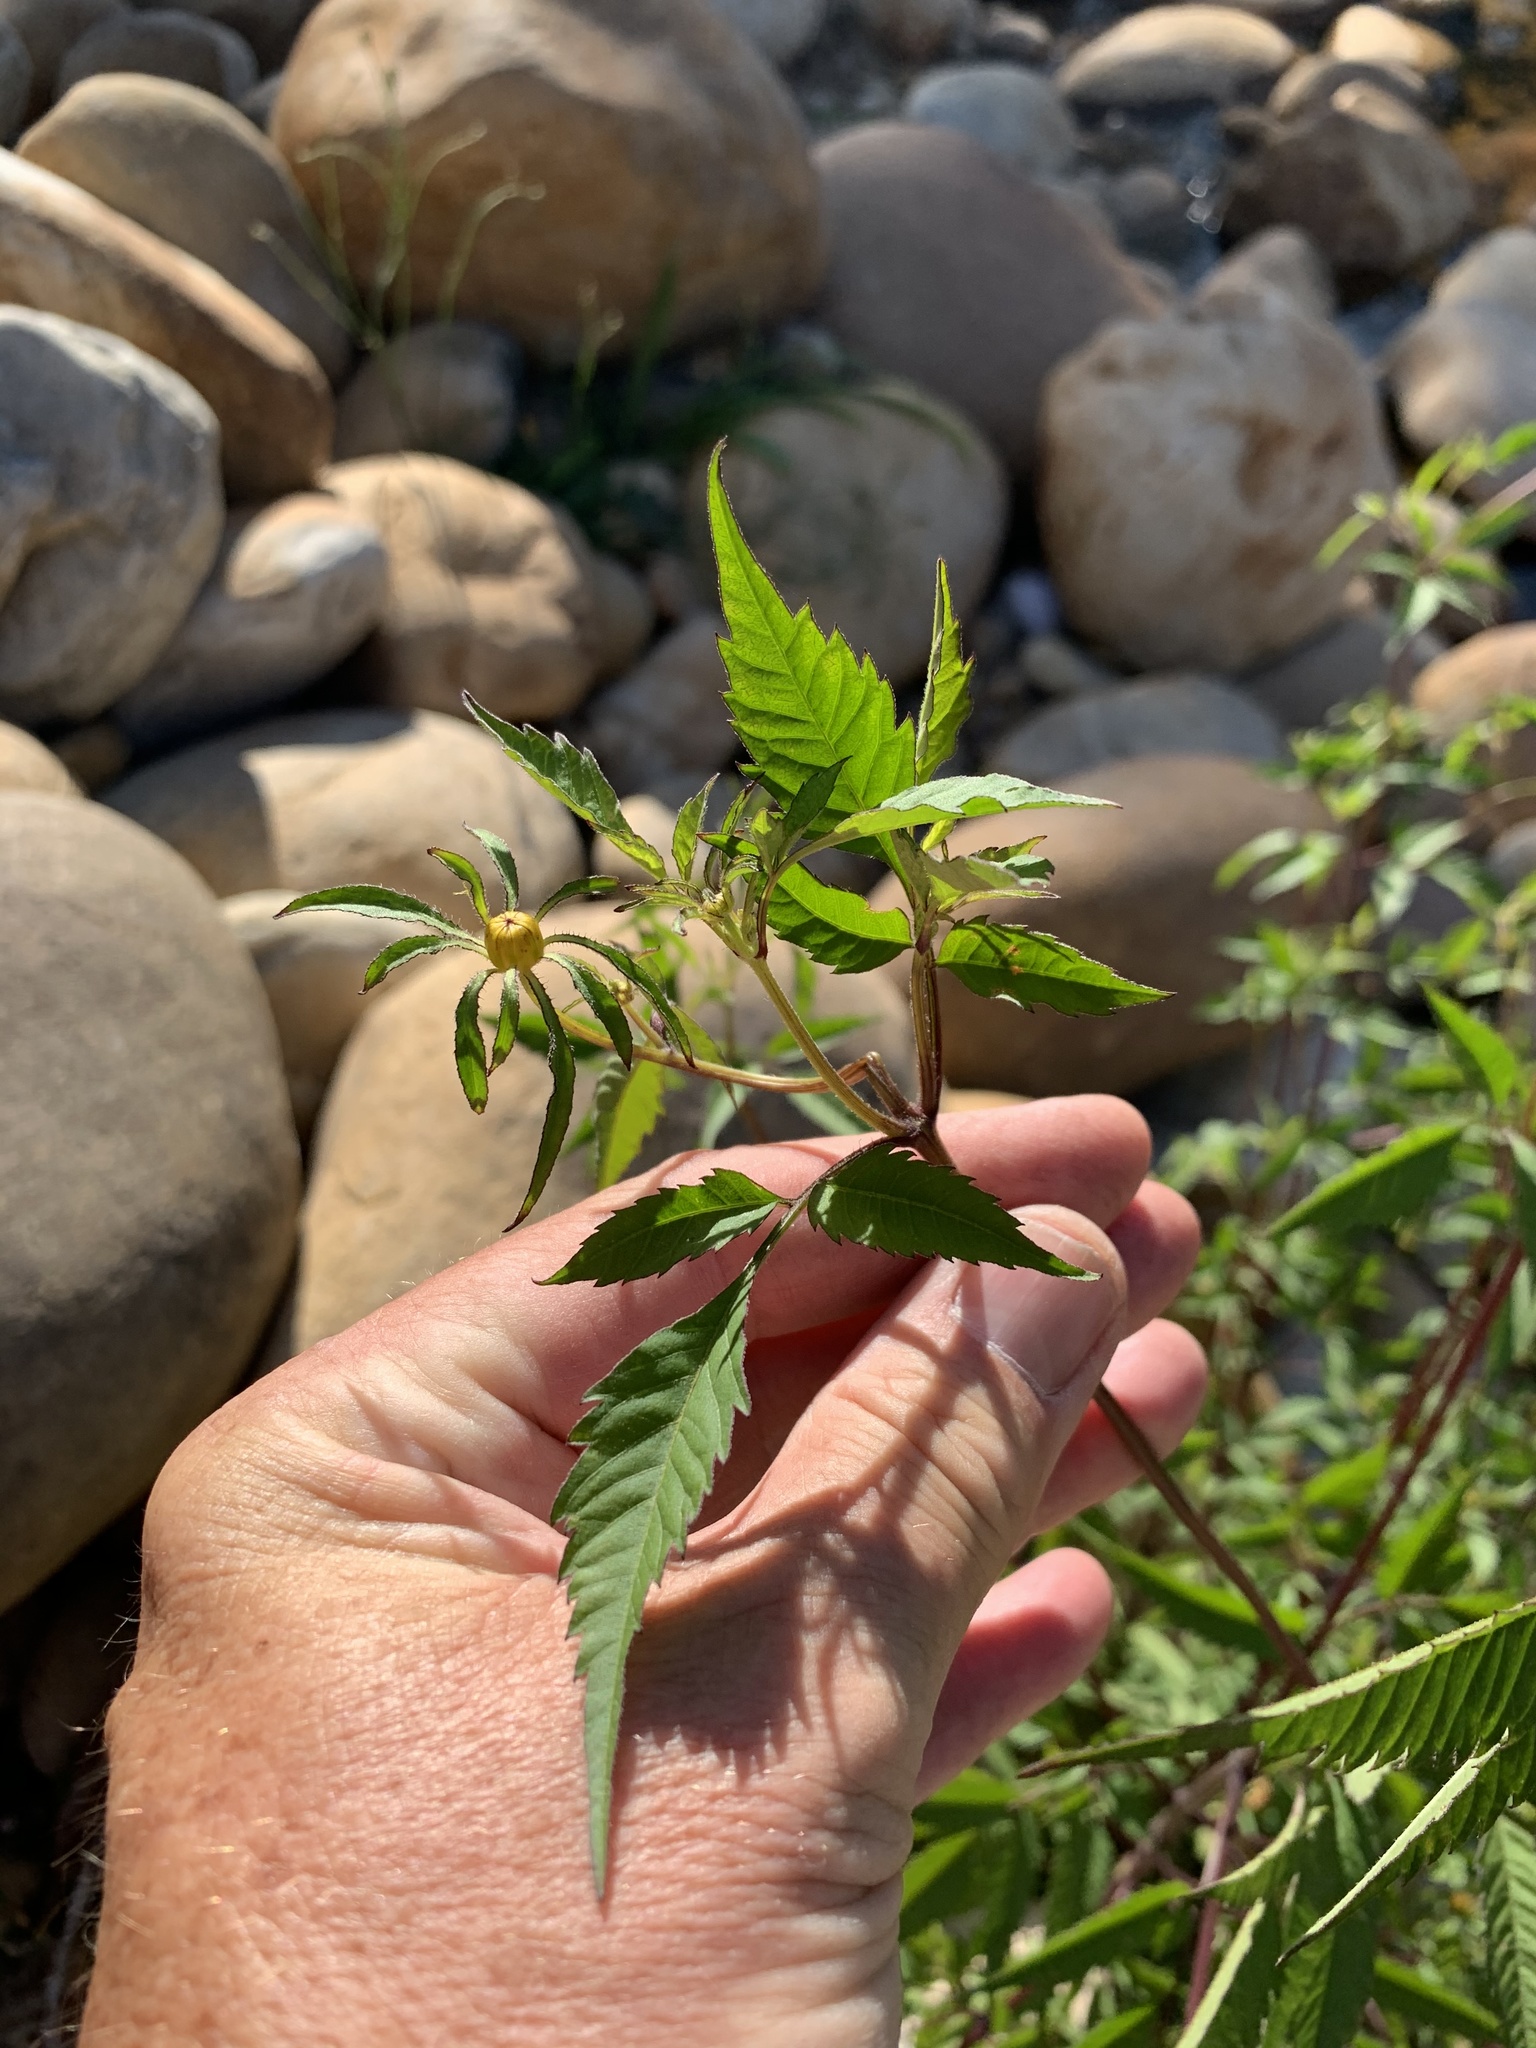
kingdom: Plantae
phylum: Tracheophyta
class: Magnoliopsida
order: Asterales
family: Asteraceae
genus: Bidens
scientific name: Bidens frondosa
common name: Beggarticks
